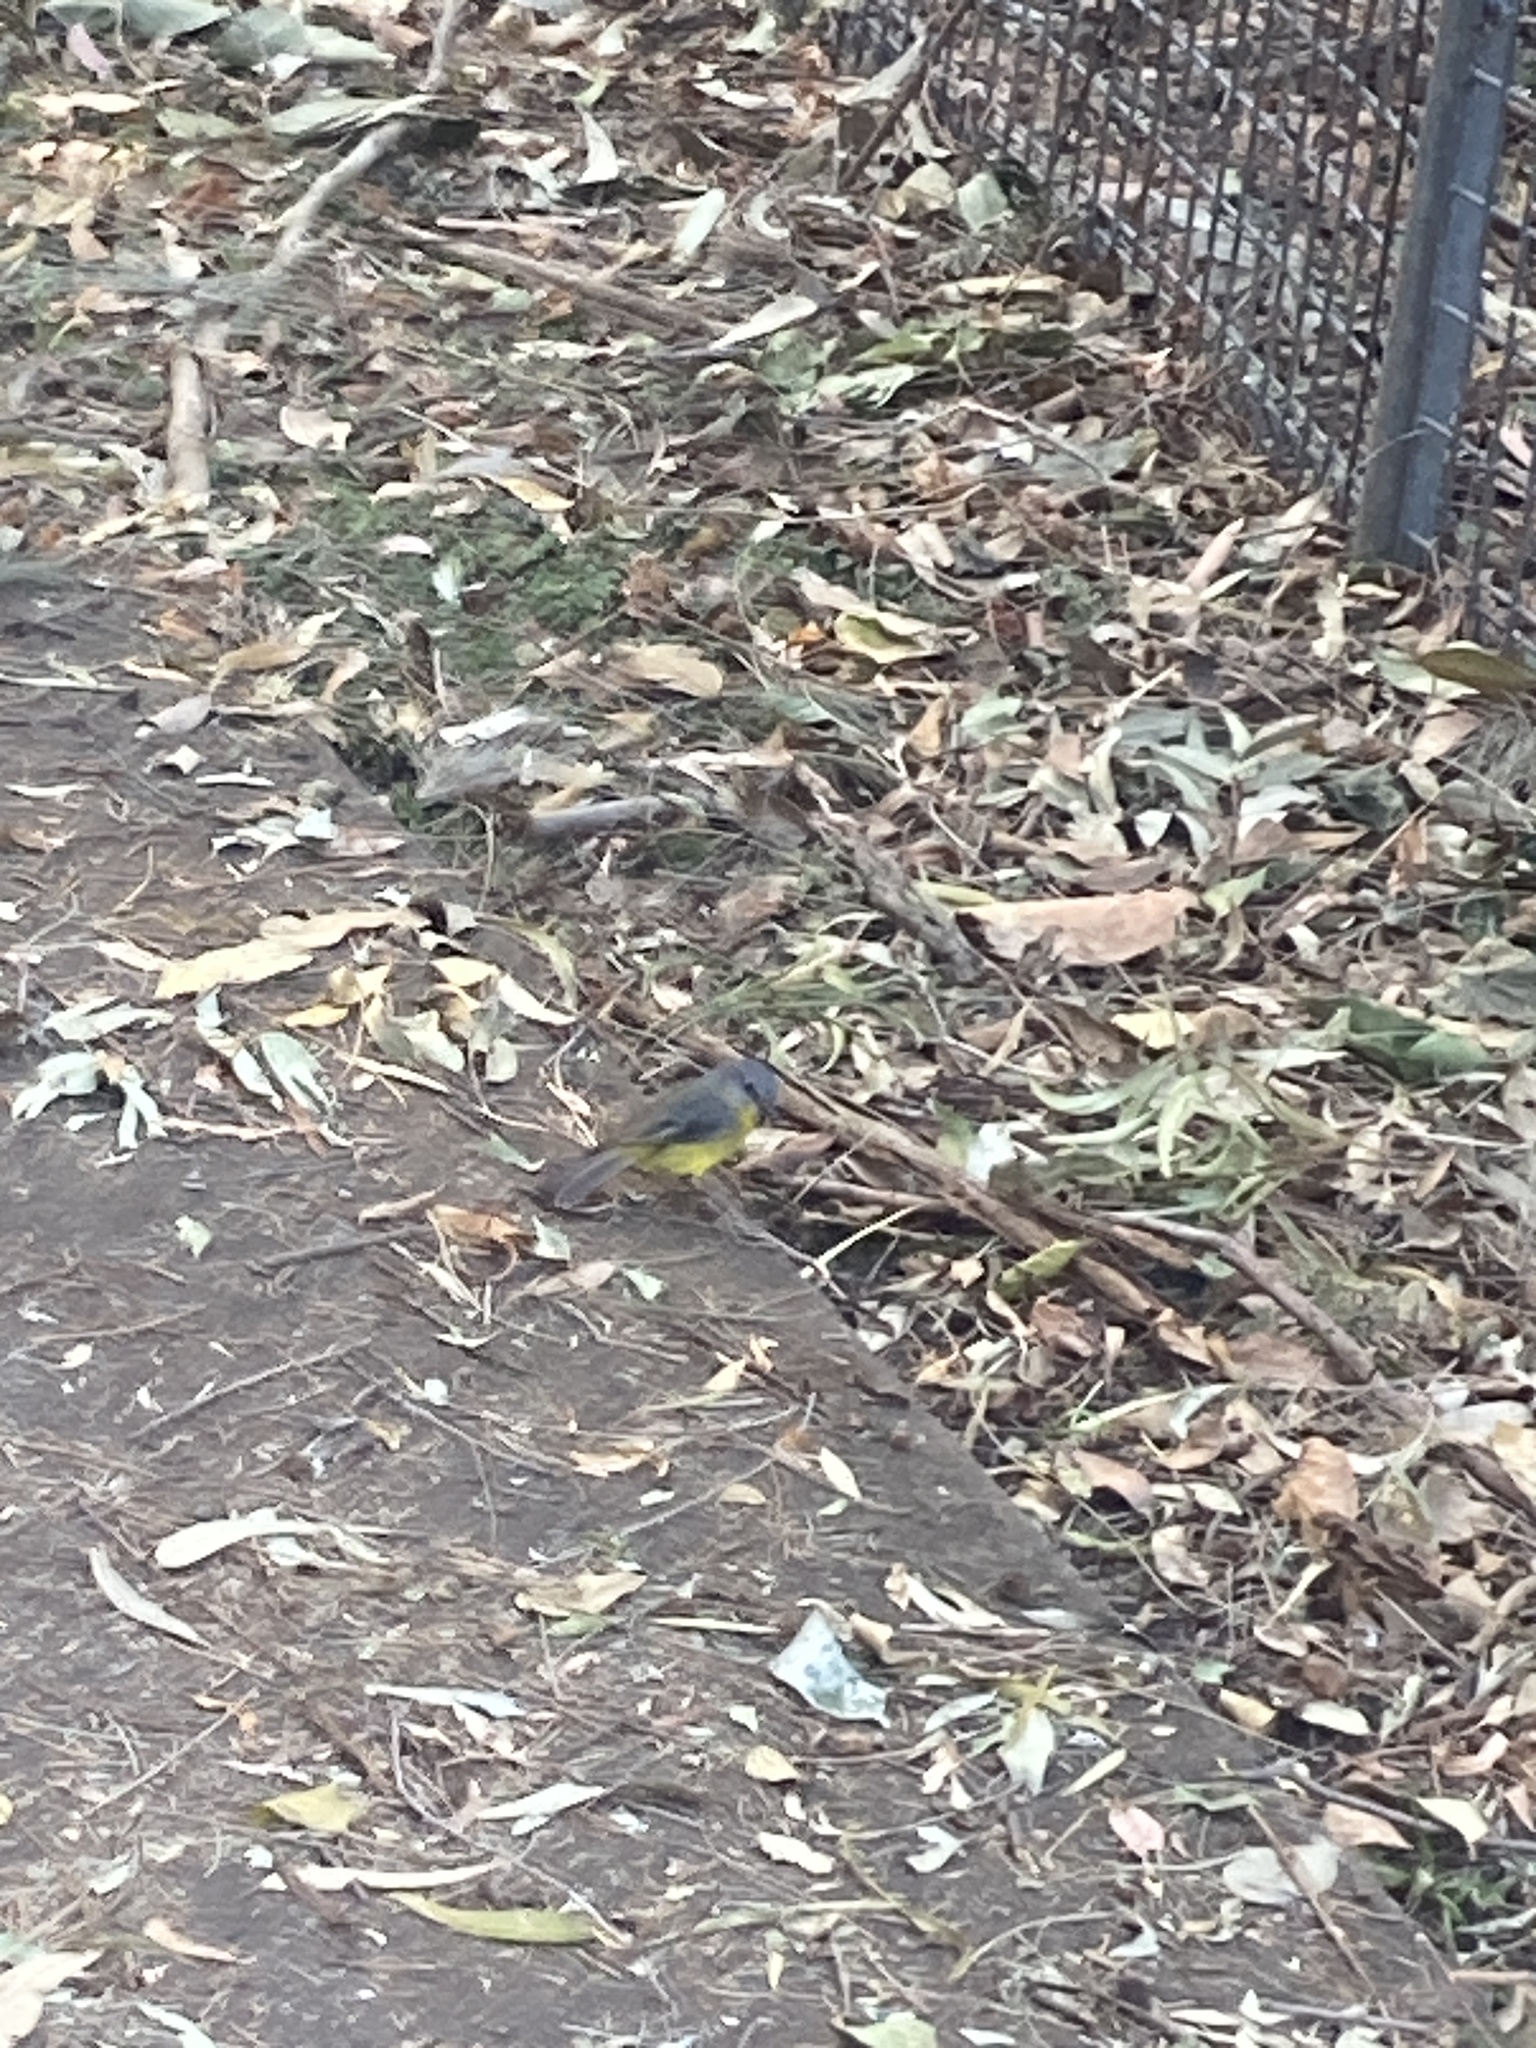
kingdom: Animalia
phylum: Chordata
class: Aves
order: Passeriformes
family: Petroicidae
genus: Eopsaltria
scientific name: Eopsaltria australis
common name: Eastern yellow robin
